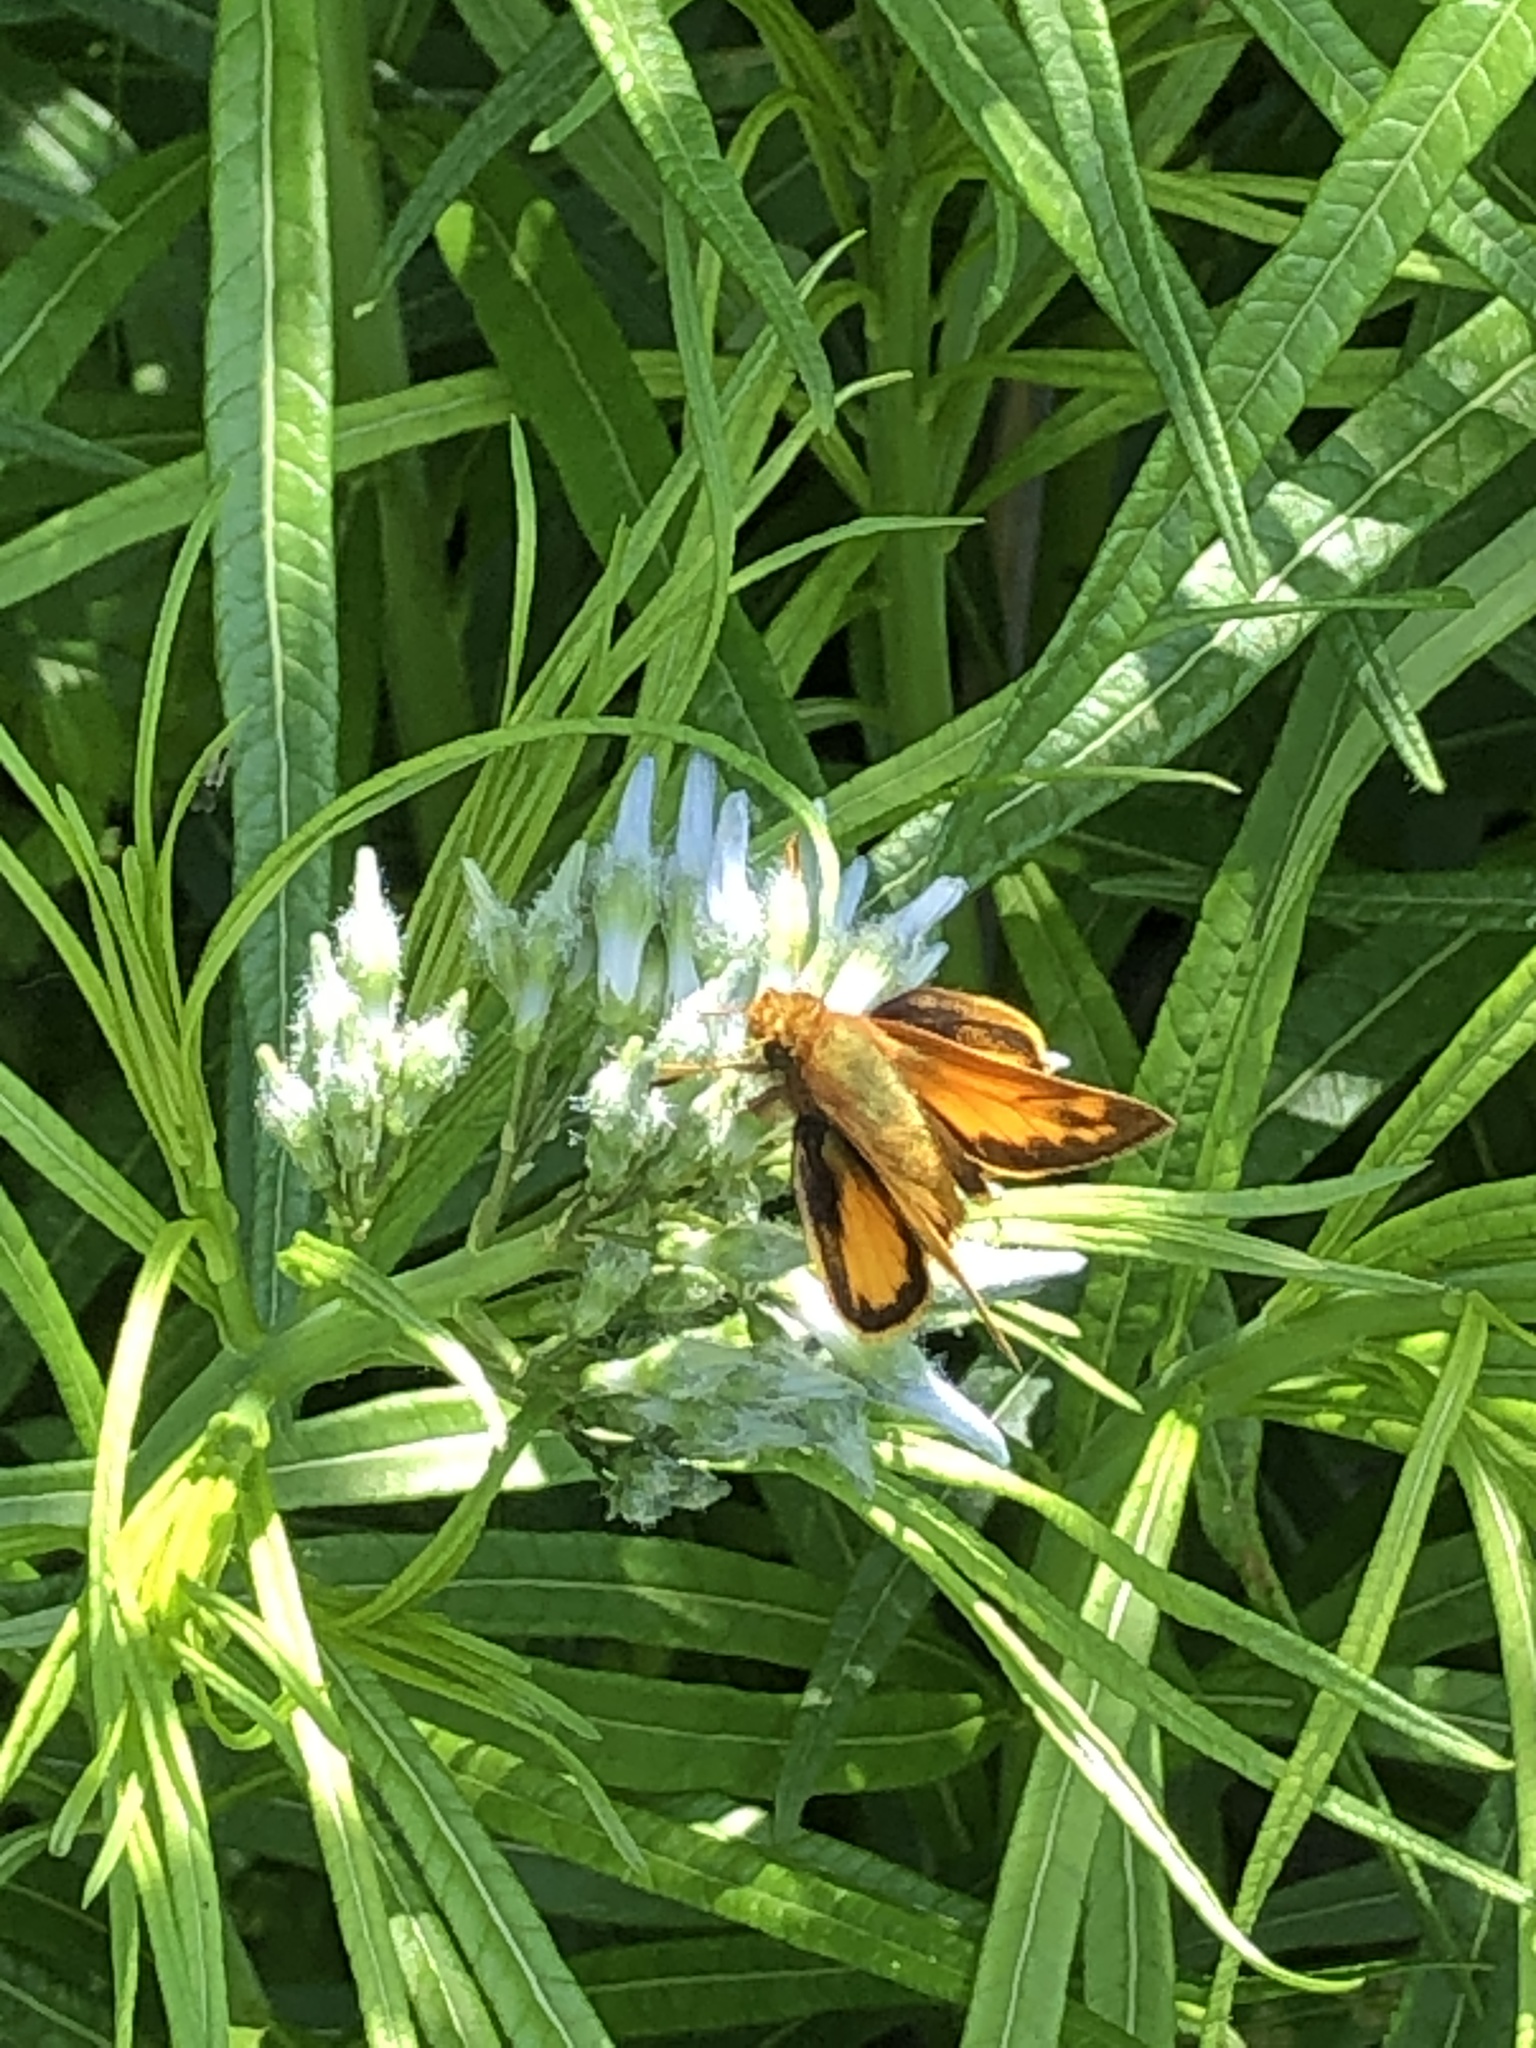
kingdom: Animalia
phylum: Arthropoda
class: Insecta
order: Lepidoptera
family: Hesperiidae
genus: Lon
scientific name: Lon zabulon
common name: Zabulon skipper
